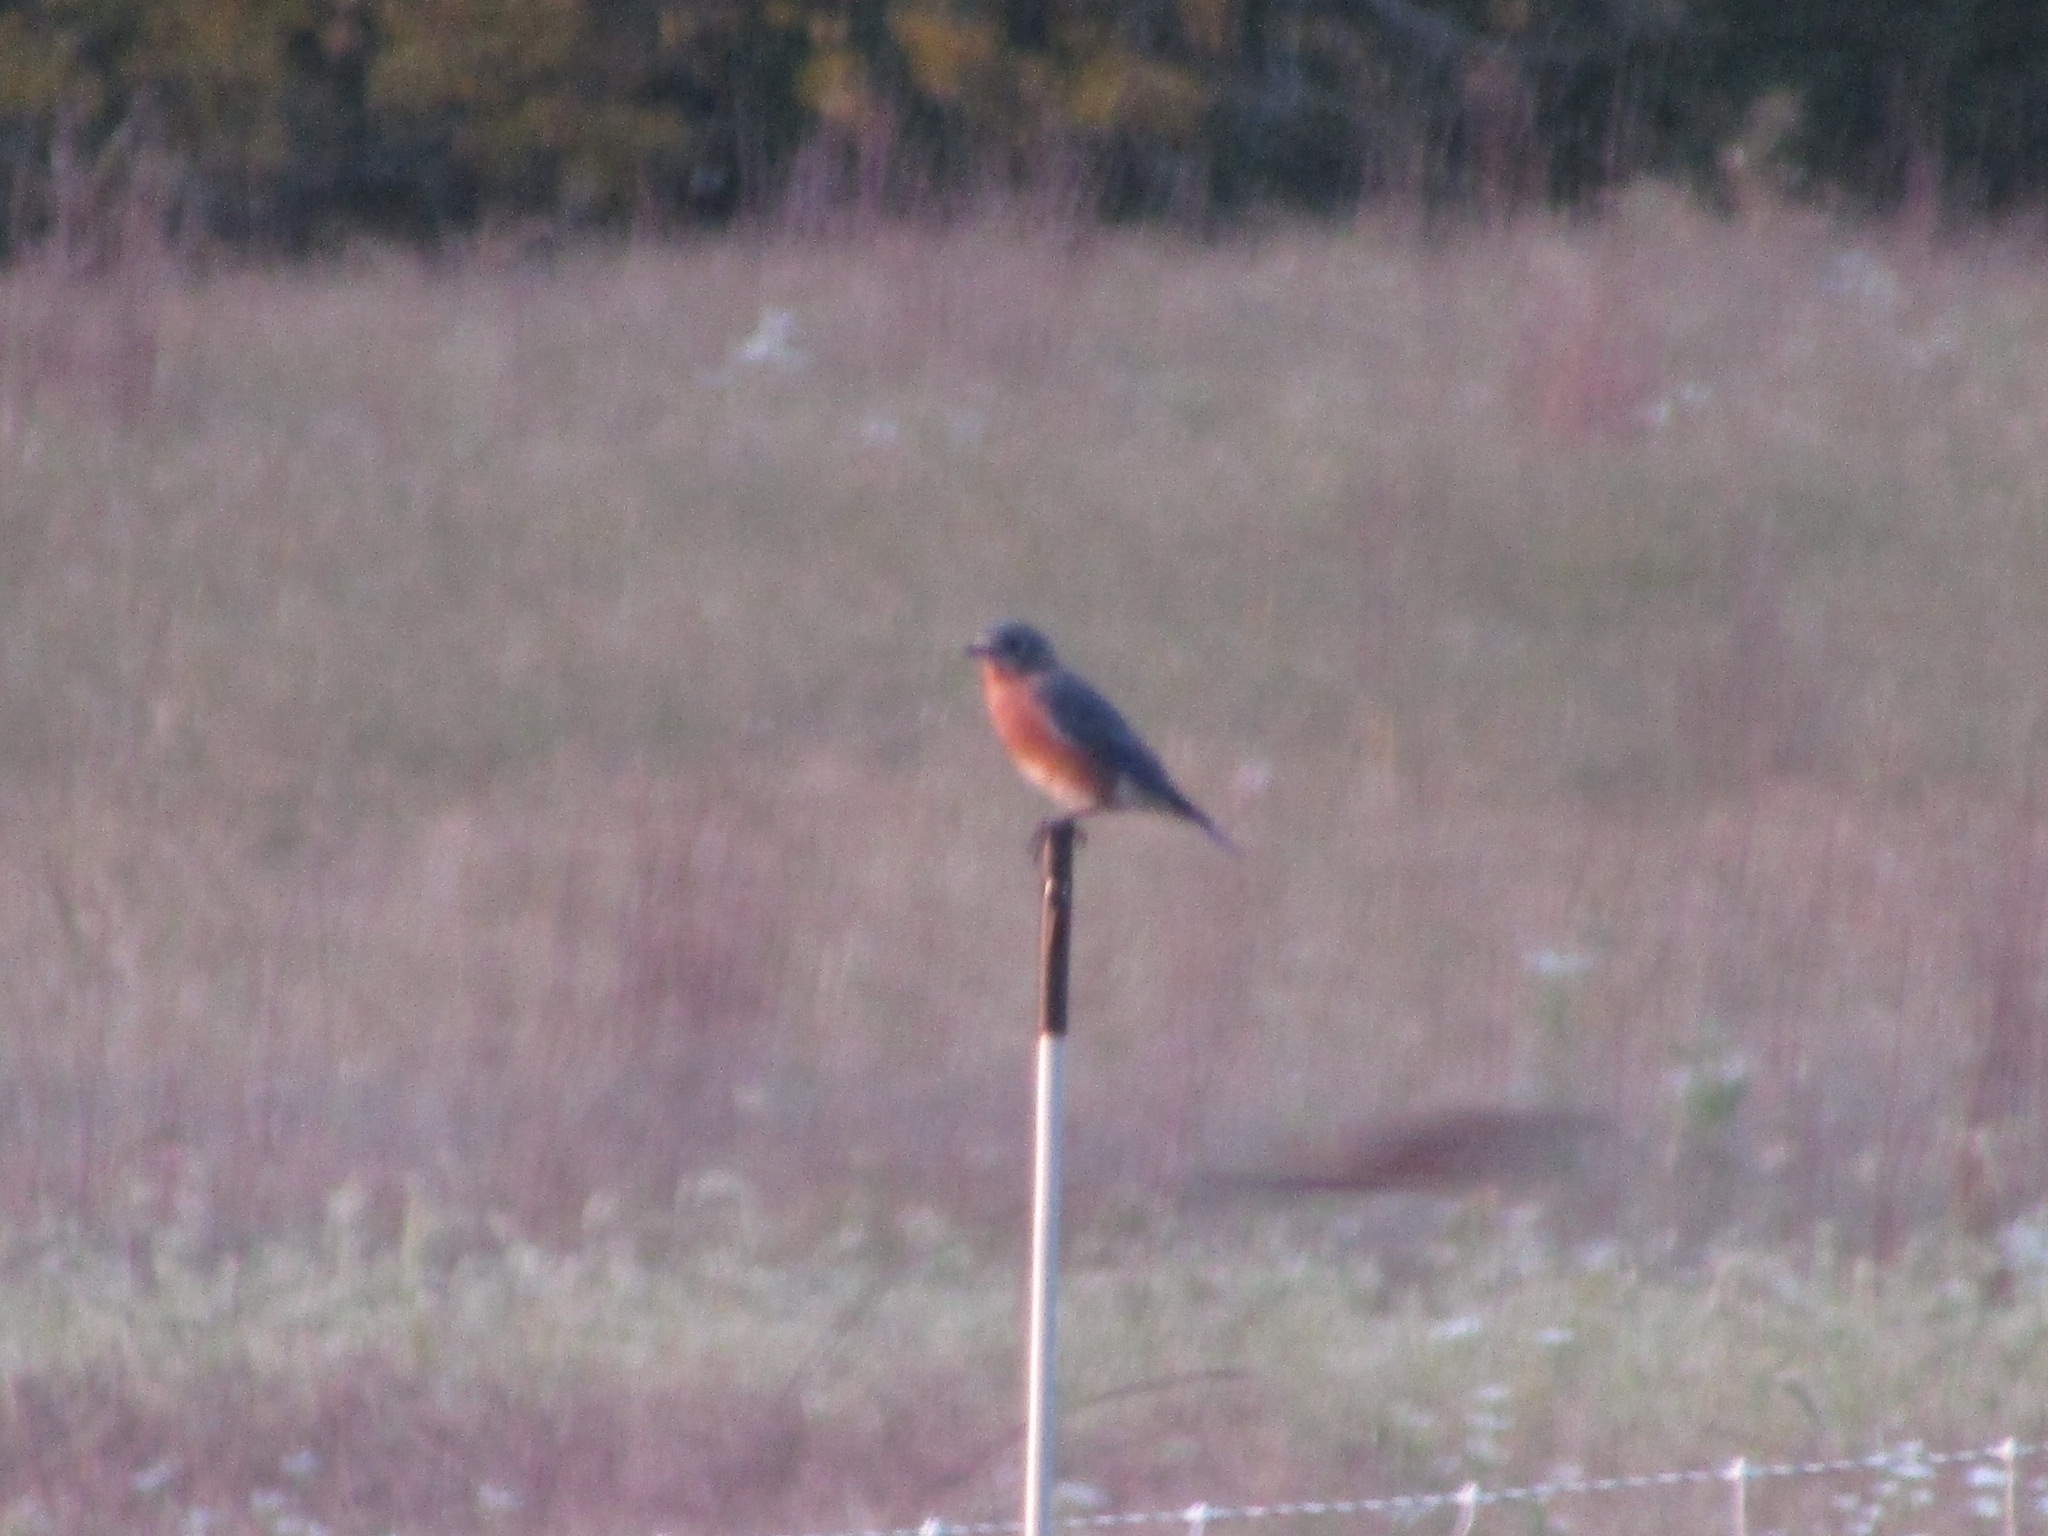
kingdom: Animalia
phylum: Chordata
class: Aves
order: Passeriformes
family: Turdidae
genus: Sialia
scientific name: Sialia sialis
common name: Eastern bluebird
